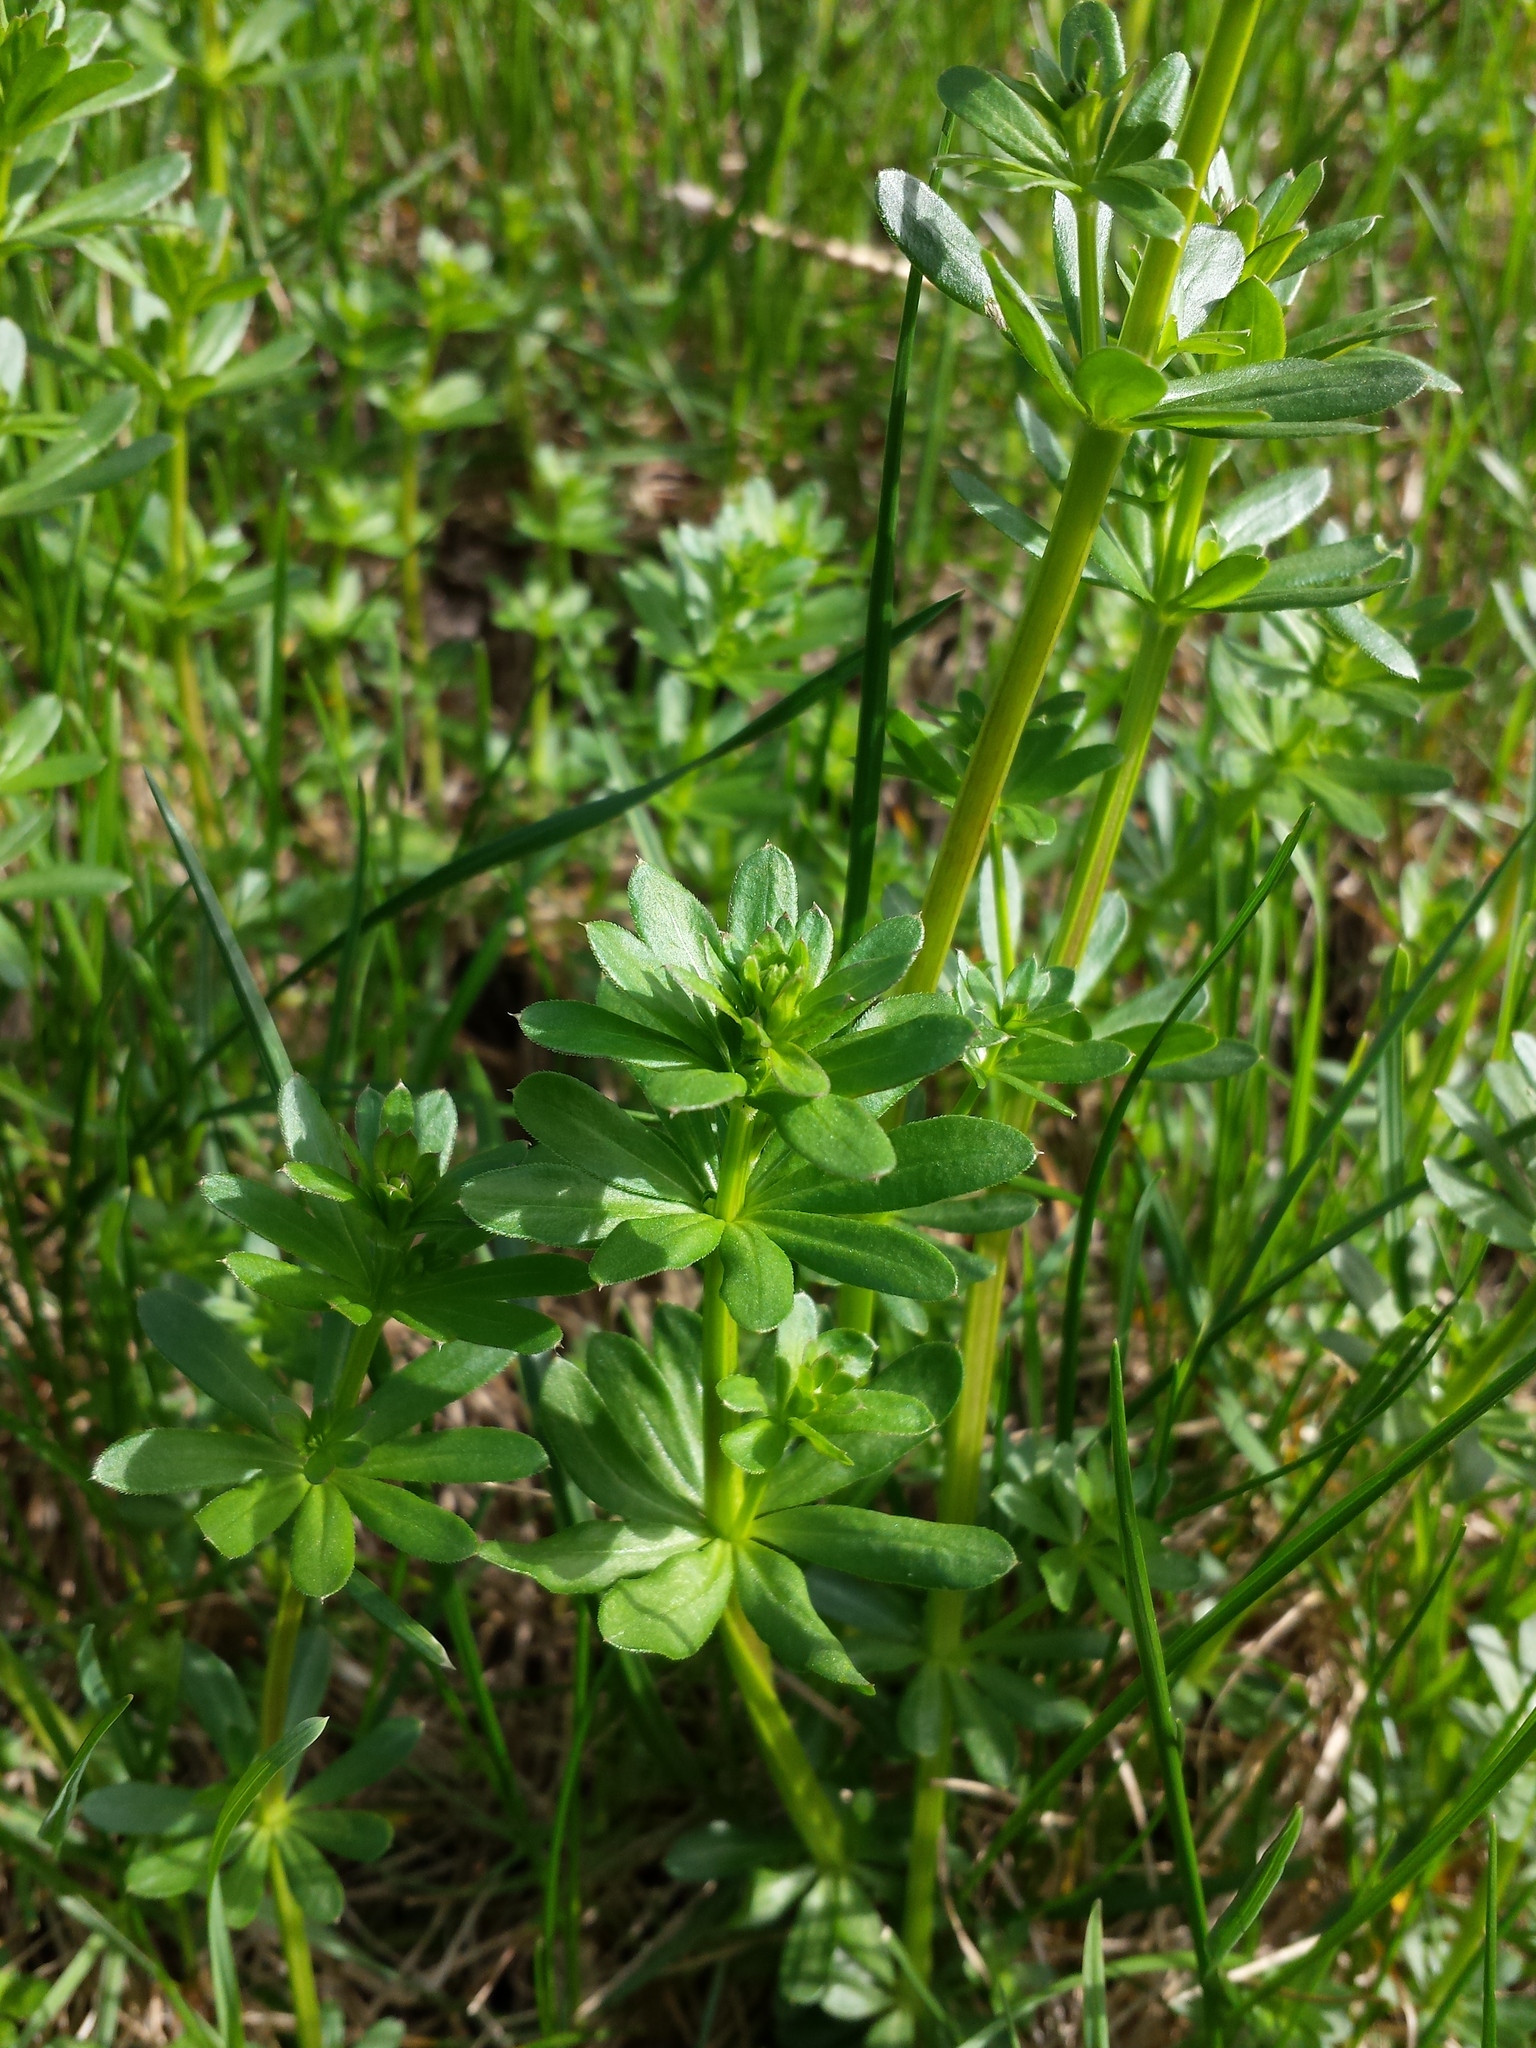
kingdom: Plantae
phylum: Tracheophyta
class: Magnoliopsida
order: Gentianales
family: Rubiaceae
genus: Galium
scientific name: Galium mollugo
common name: Hedge bedstraw
